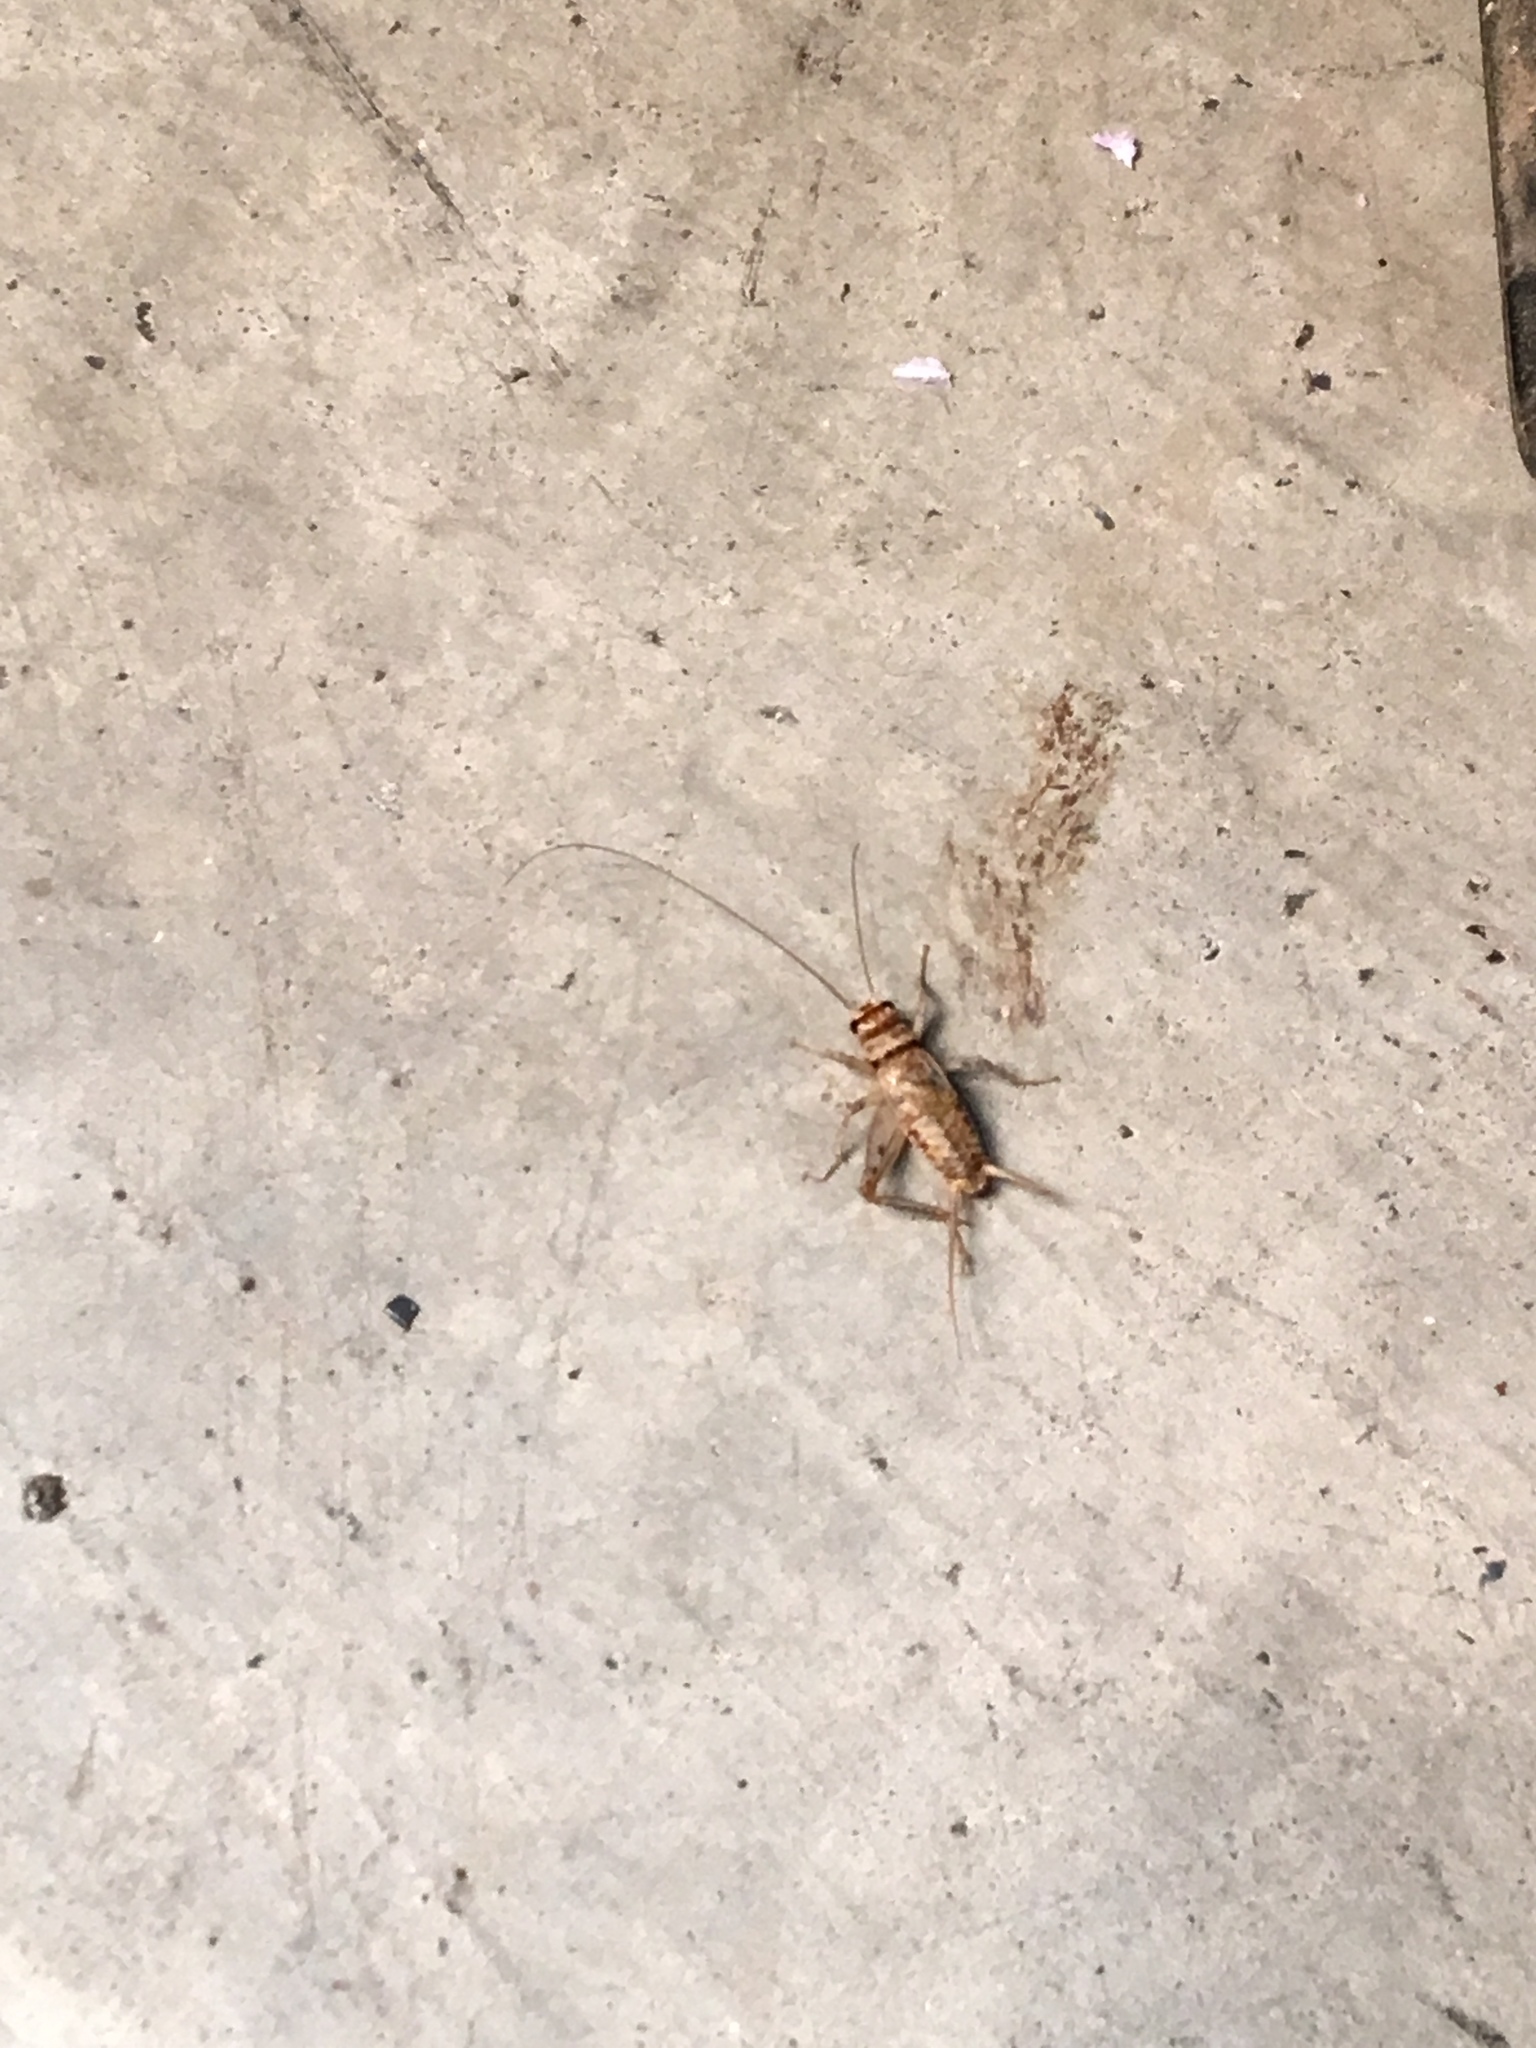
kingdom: Animalia
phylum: Arthropoda
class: Insecta
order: Orthoptera
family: Gryllidae
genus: Gryllodes
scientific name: Gryllodes sigillatus
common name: Tropical house cricket
